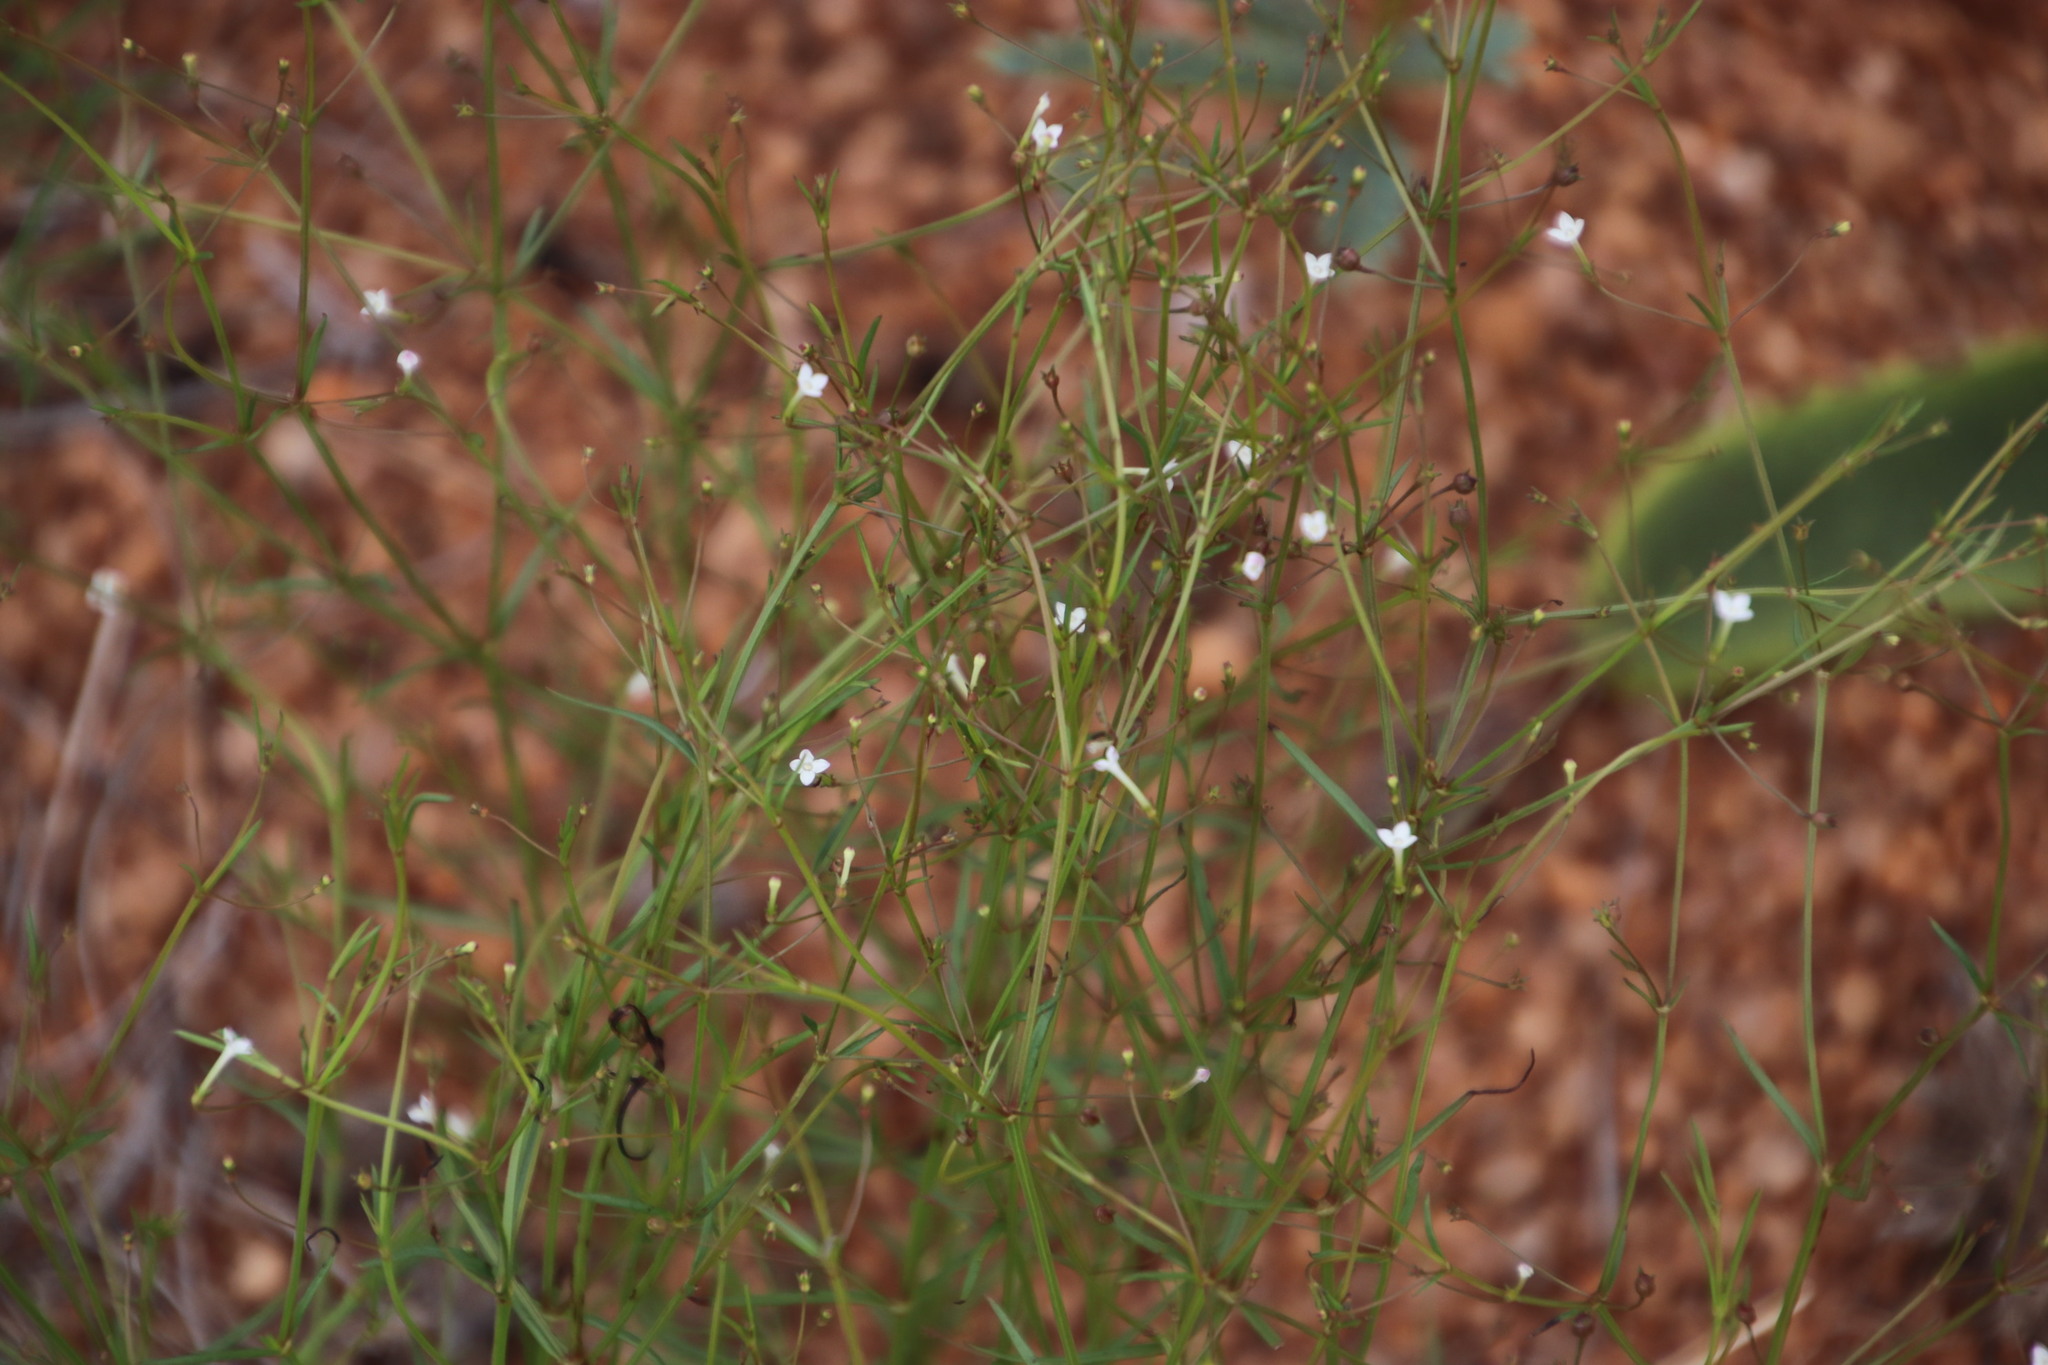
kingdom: Plantae
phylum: Tracheophyta
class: Magnoliopsida
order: Gentianales
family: Rubiaceae
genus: Oldenlandia
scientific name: Oldenlandia herbacea
